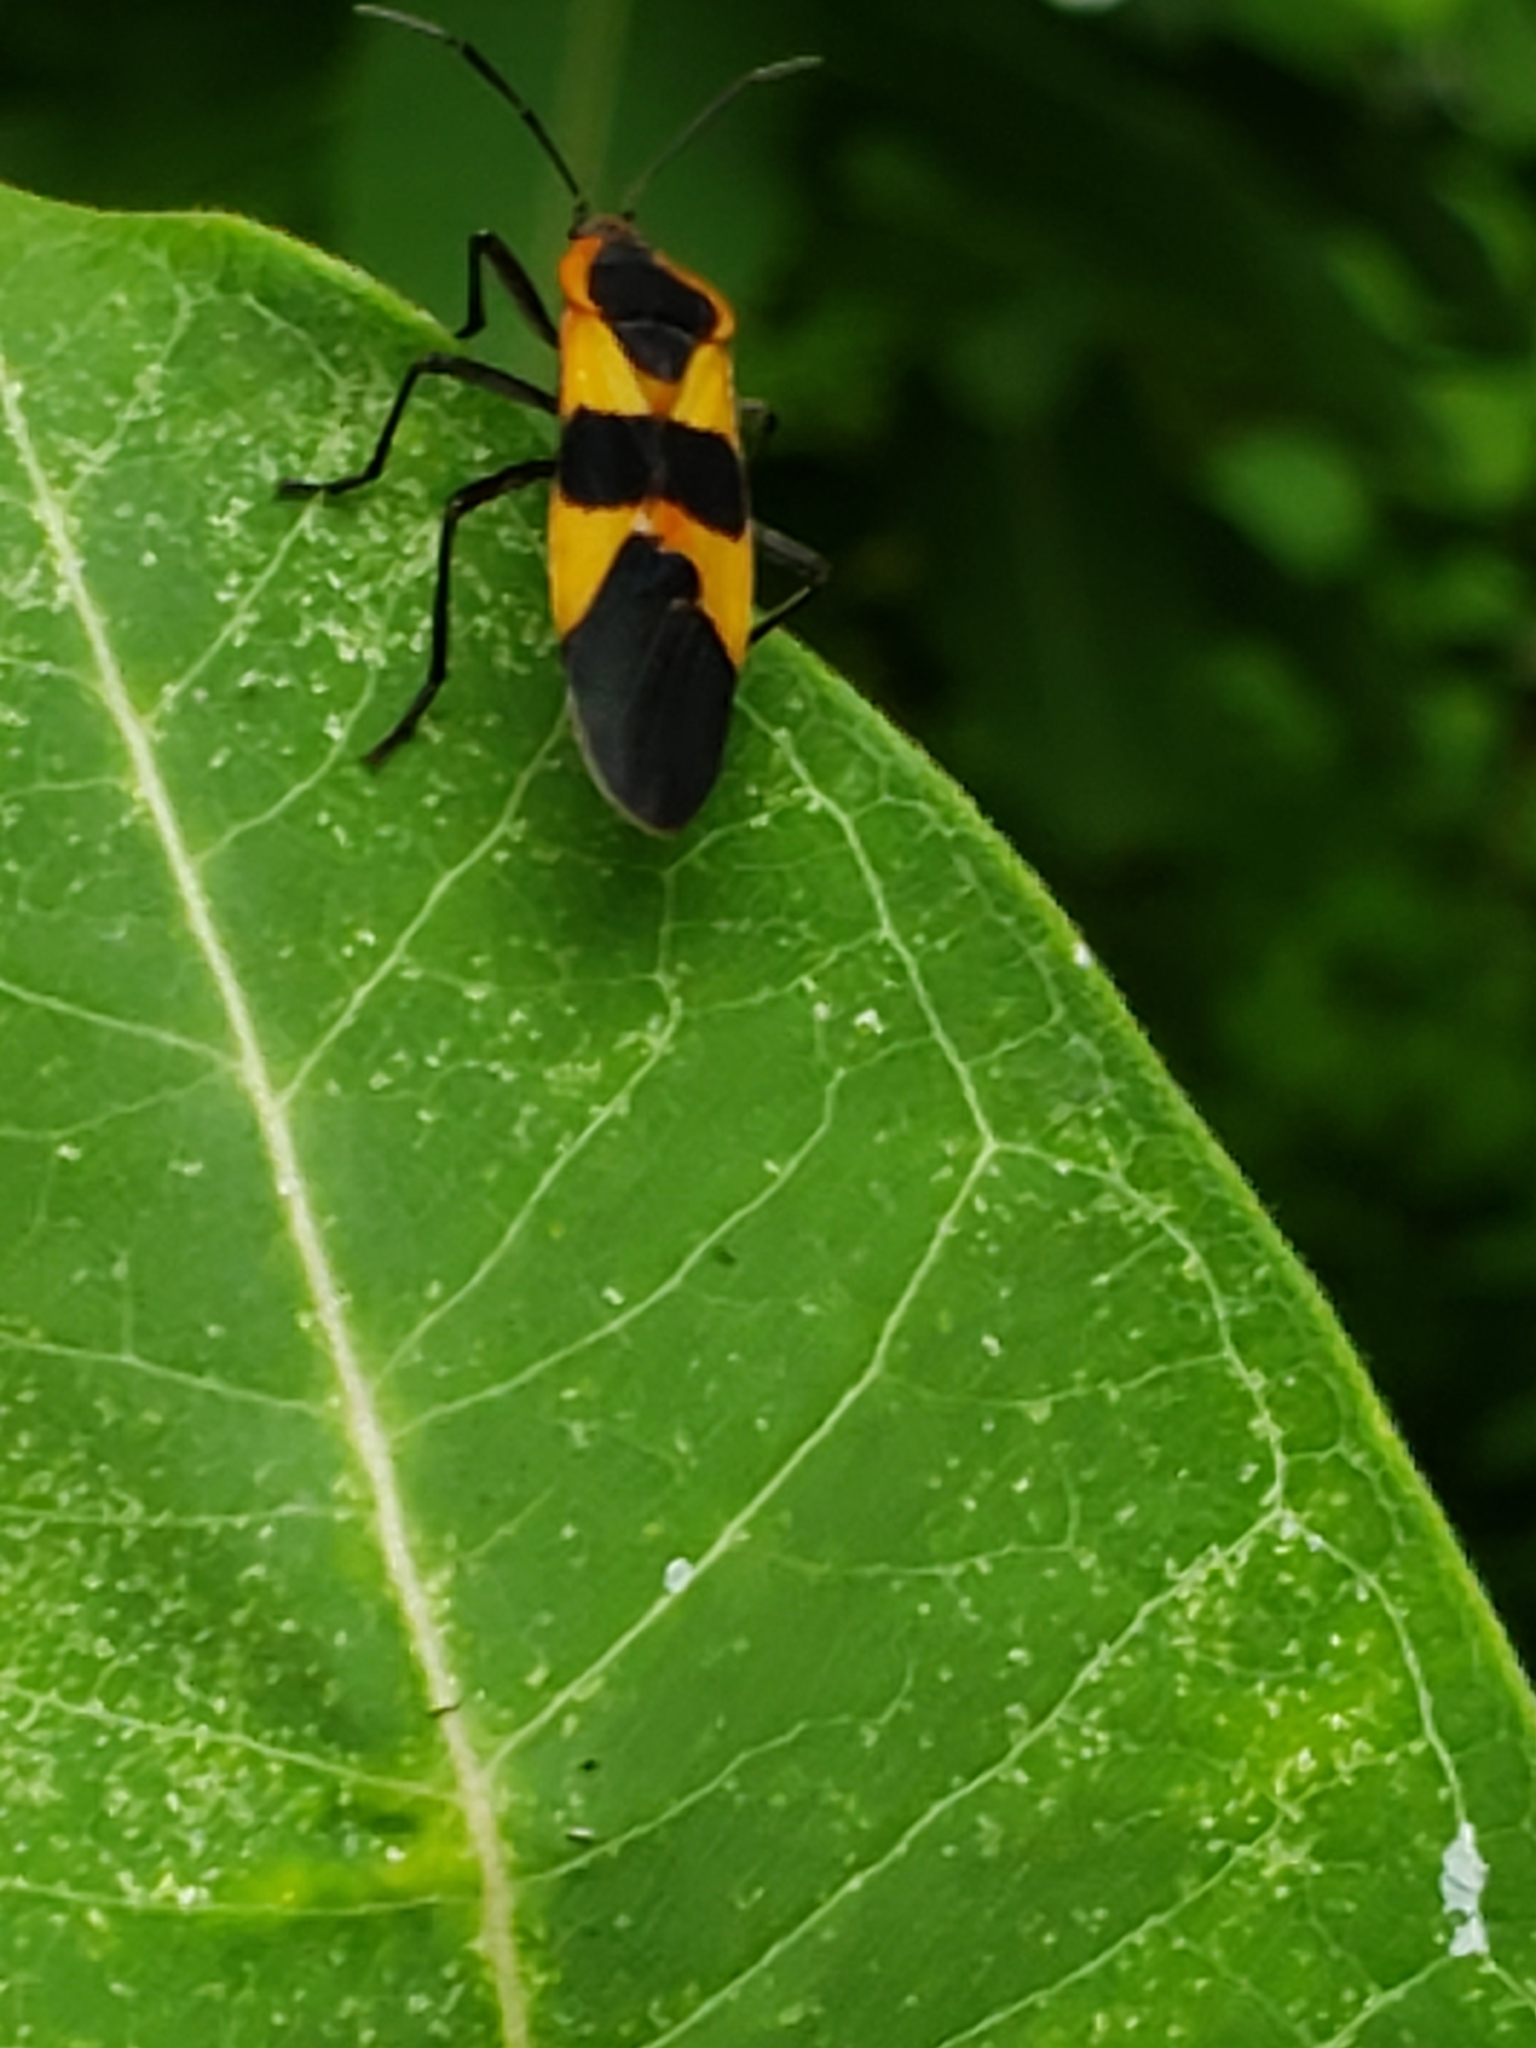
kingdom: Animalia
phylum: Arthropoda
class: Insecta
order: Hemiptera
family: Lygaeidae
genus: Oncopeltus
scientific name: Oncopeltus fasciatus
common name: Large milkweed bug
